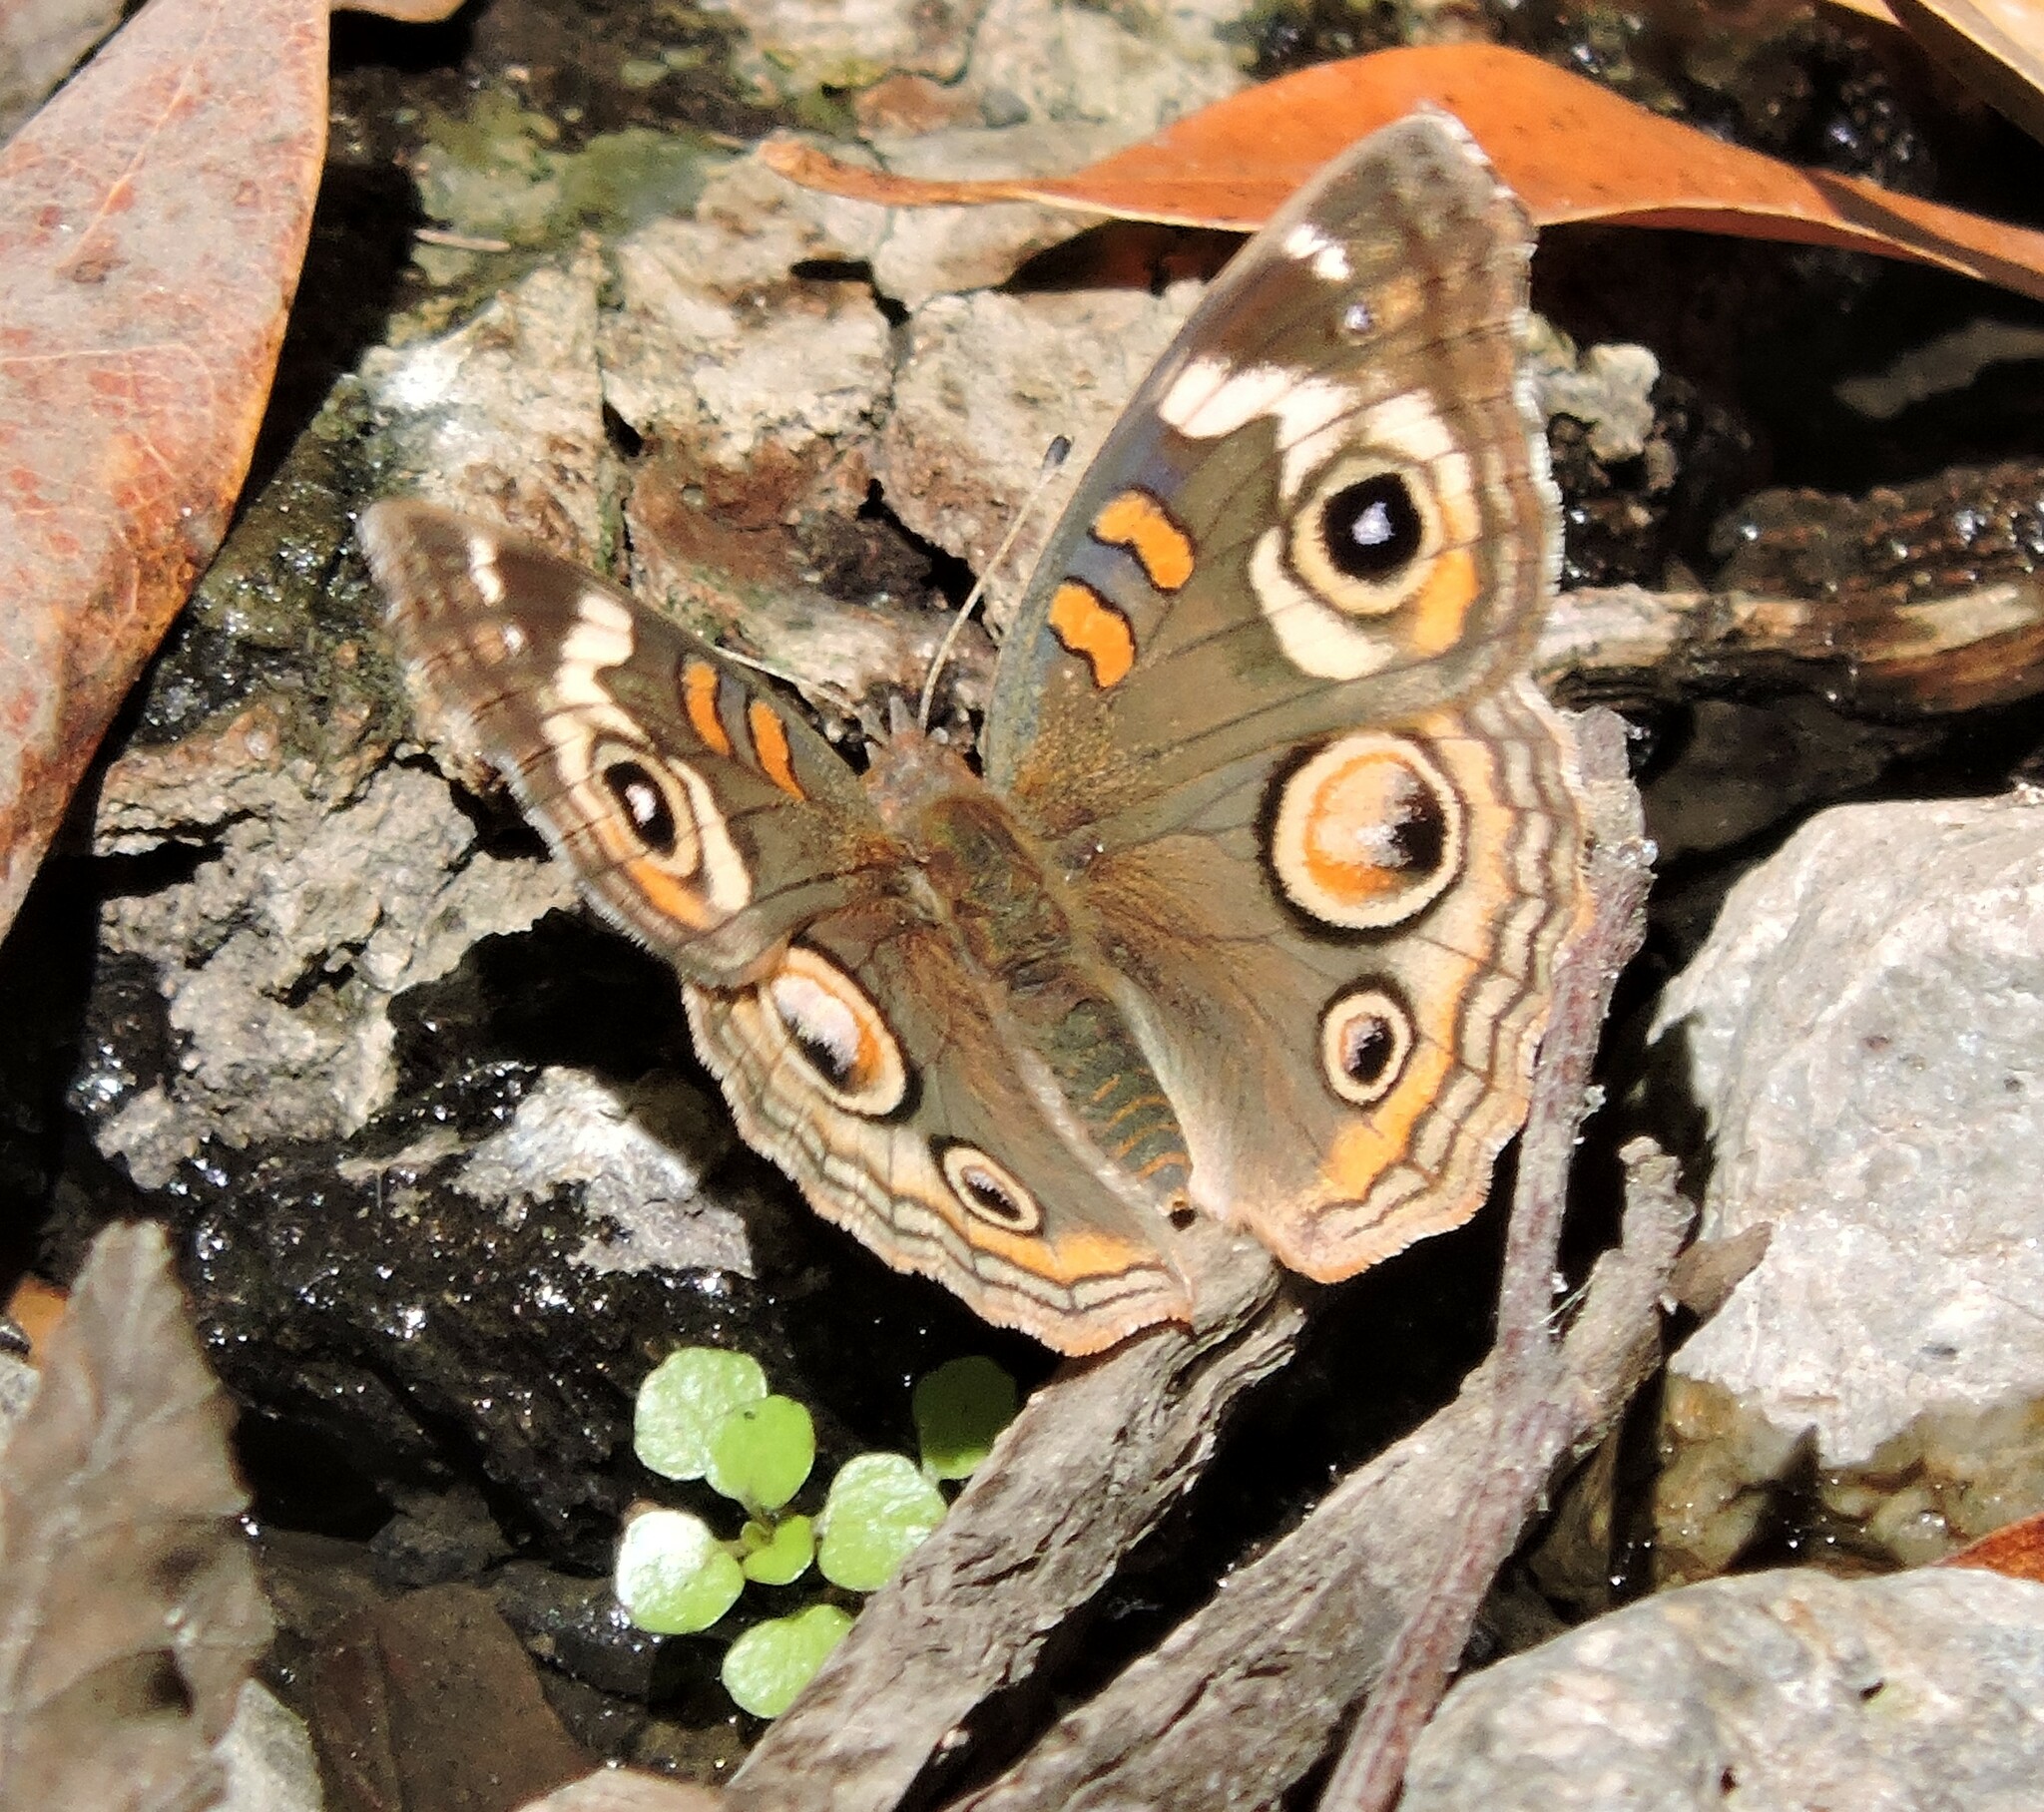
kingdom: Animalia
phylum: Arthropoda
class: Insecta
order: Lepidoptera
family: Nymphalidae
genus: Junonia
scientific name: Junonia grisea
